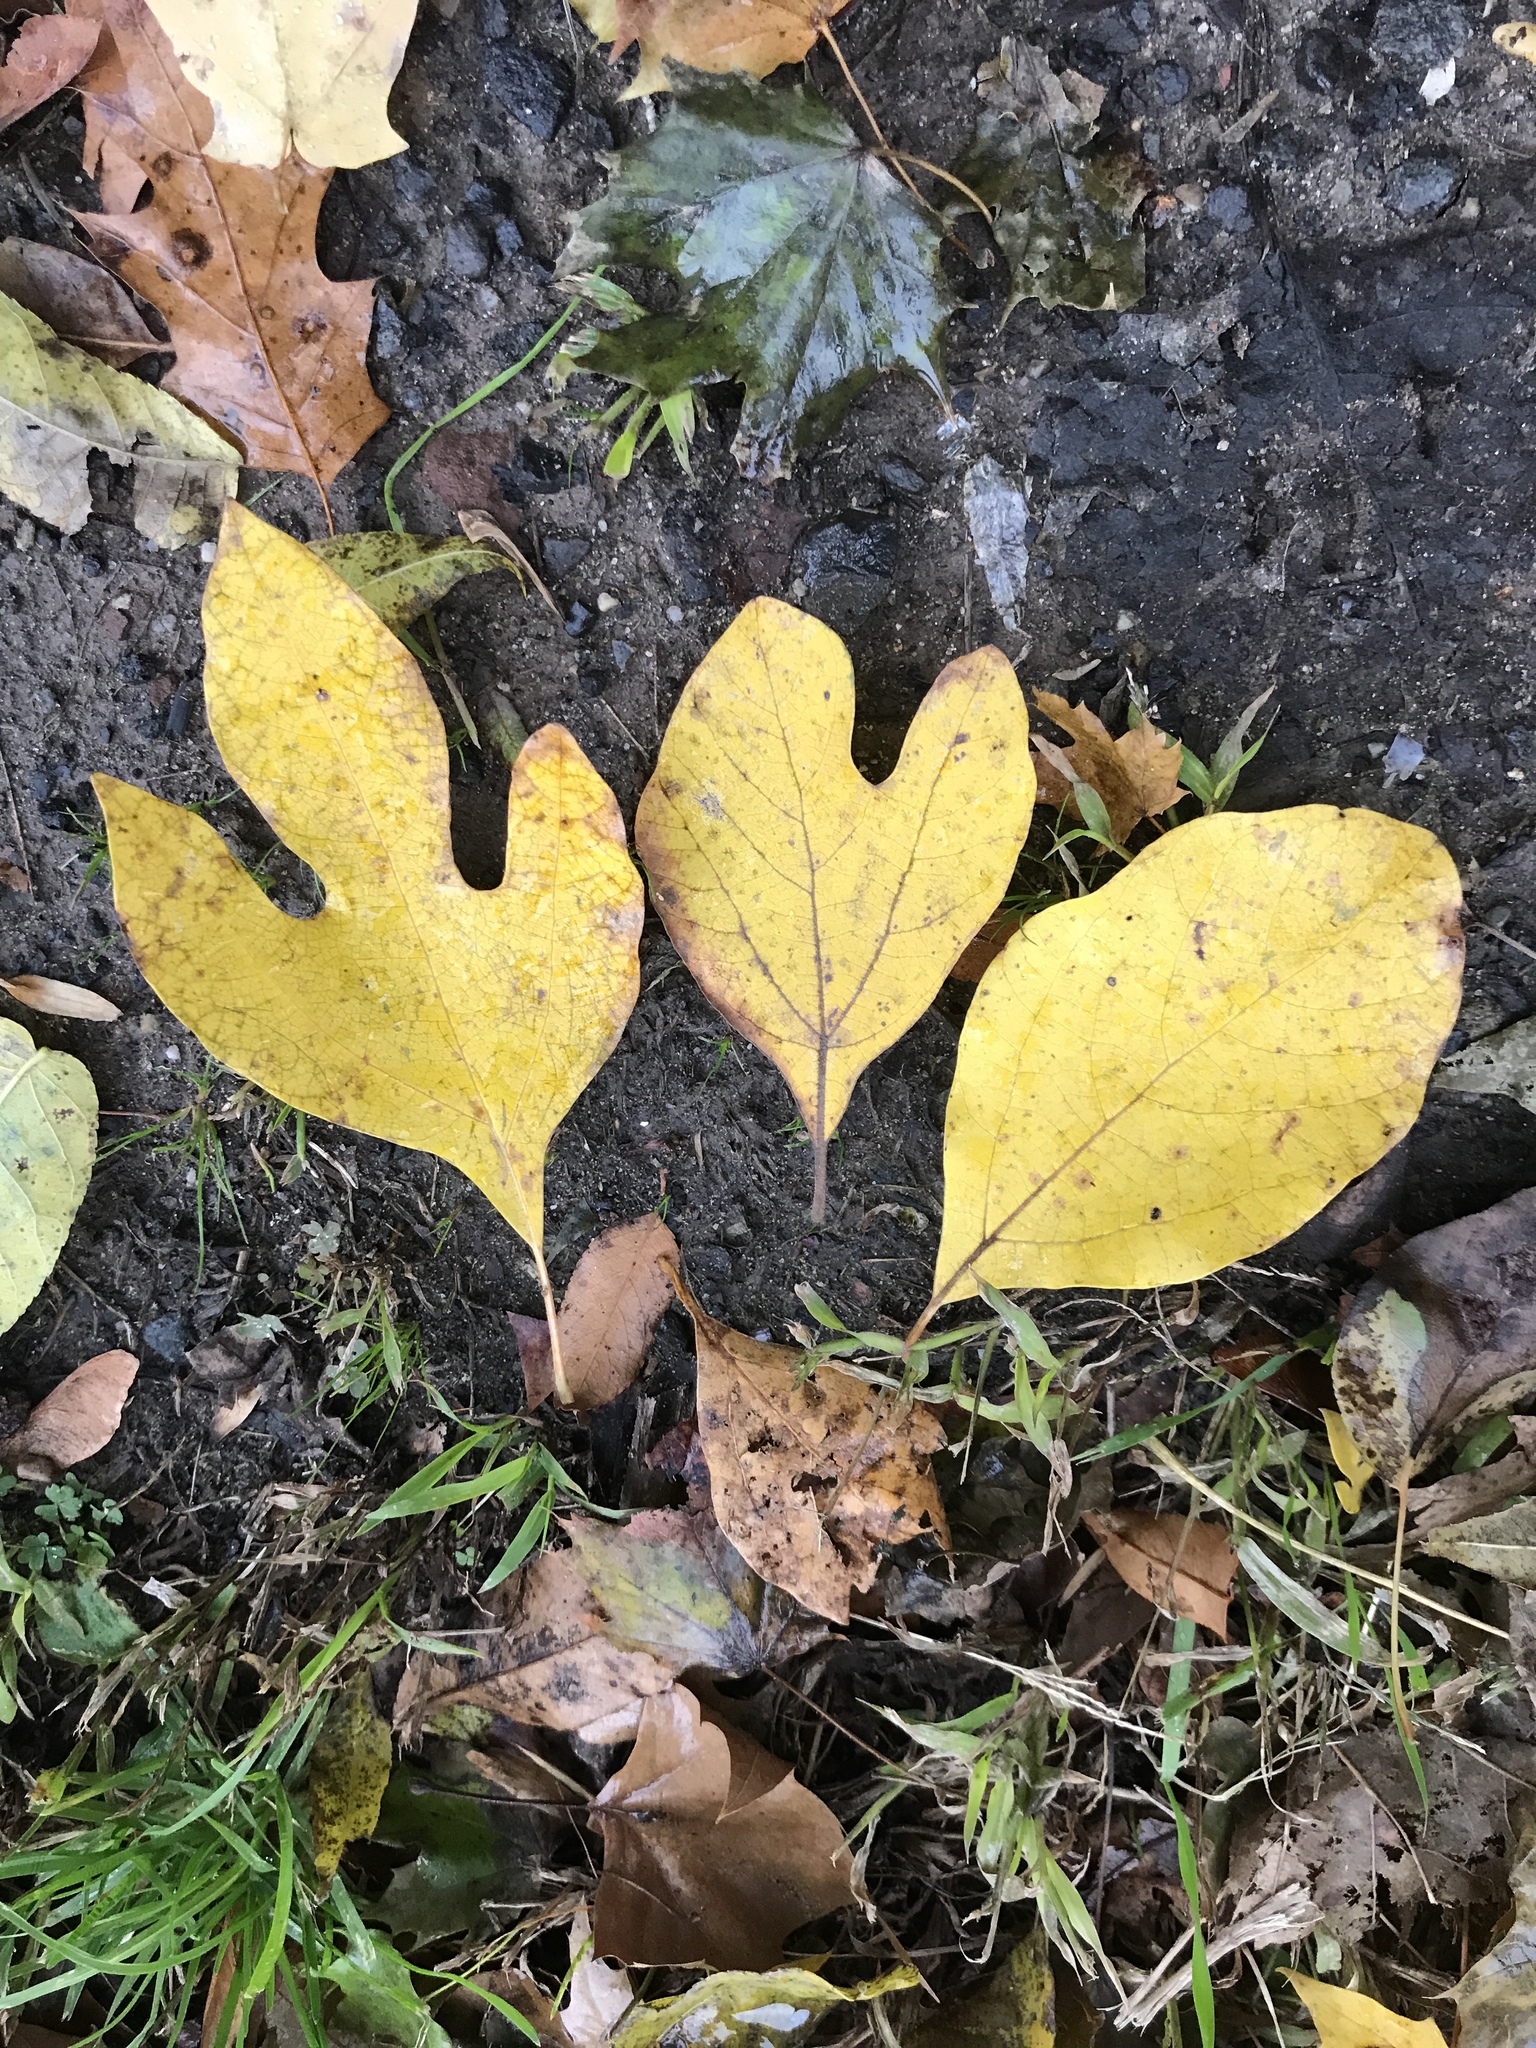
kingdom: Plantae
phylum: Tracheophyta
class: Magnoliopsida
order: Laurales
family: Lauraceae
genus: Sassafras
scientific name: Sassafras albidum
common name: Sassafras
